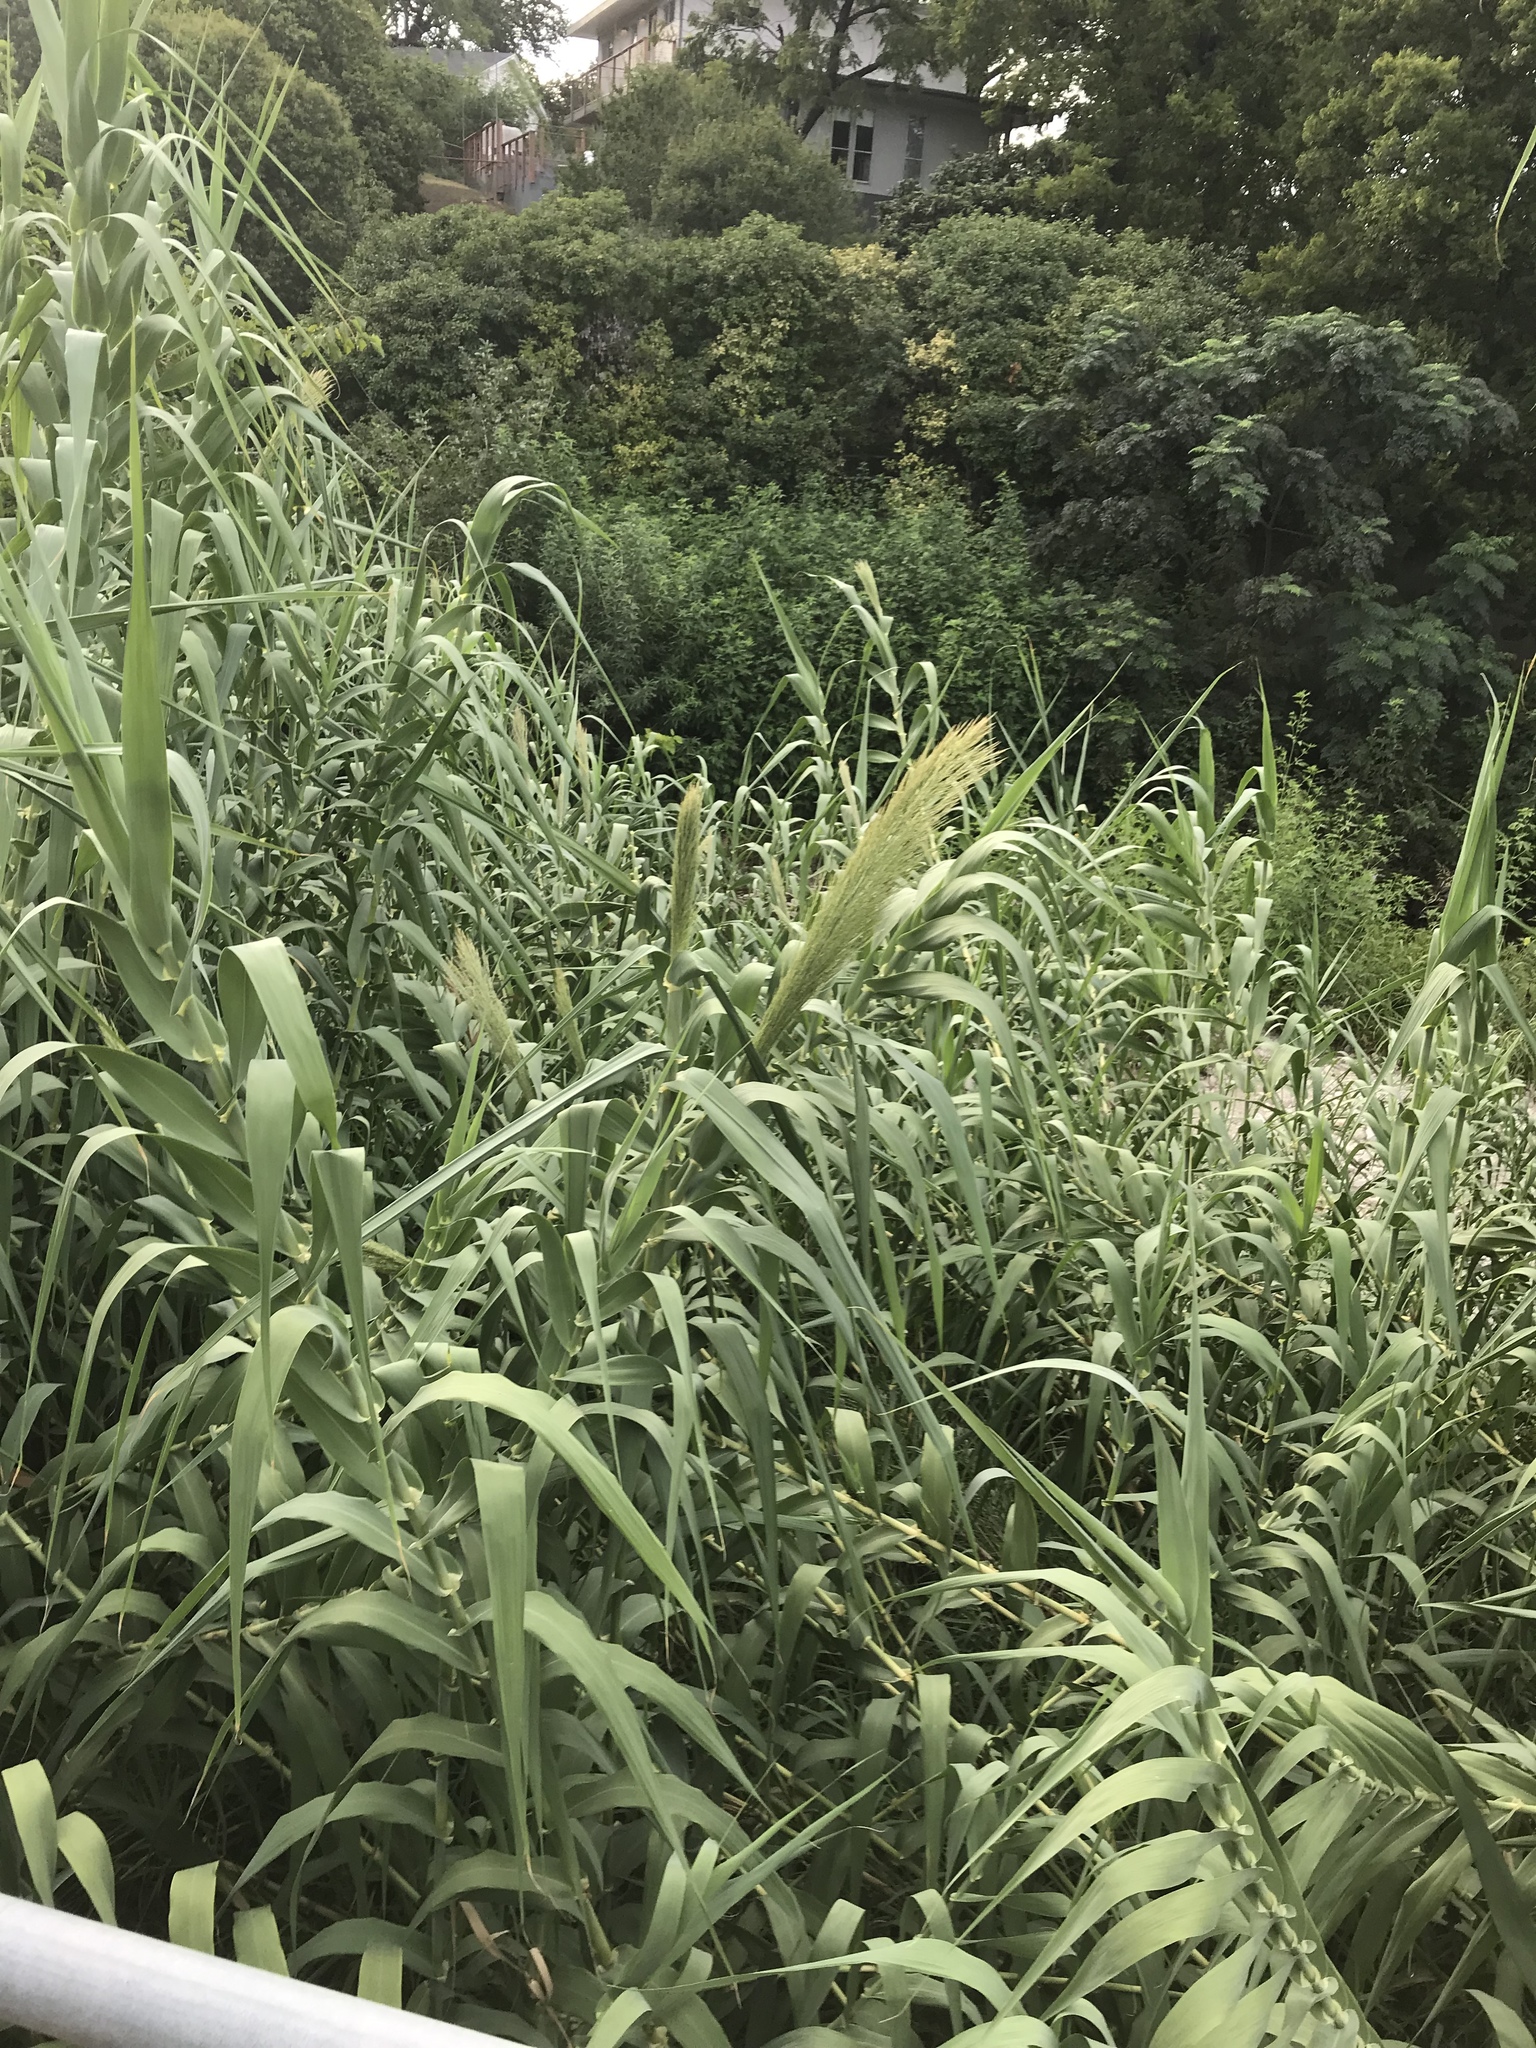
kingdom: Plantae
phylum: Tracheophyta
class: Liliopsida
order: Poales
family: Poaceae
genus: Arundo
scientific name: Arundo donax
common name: Giant reed
